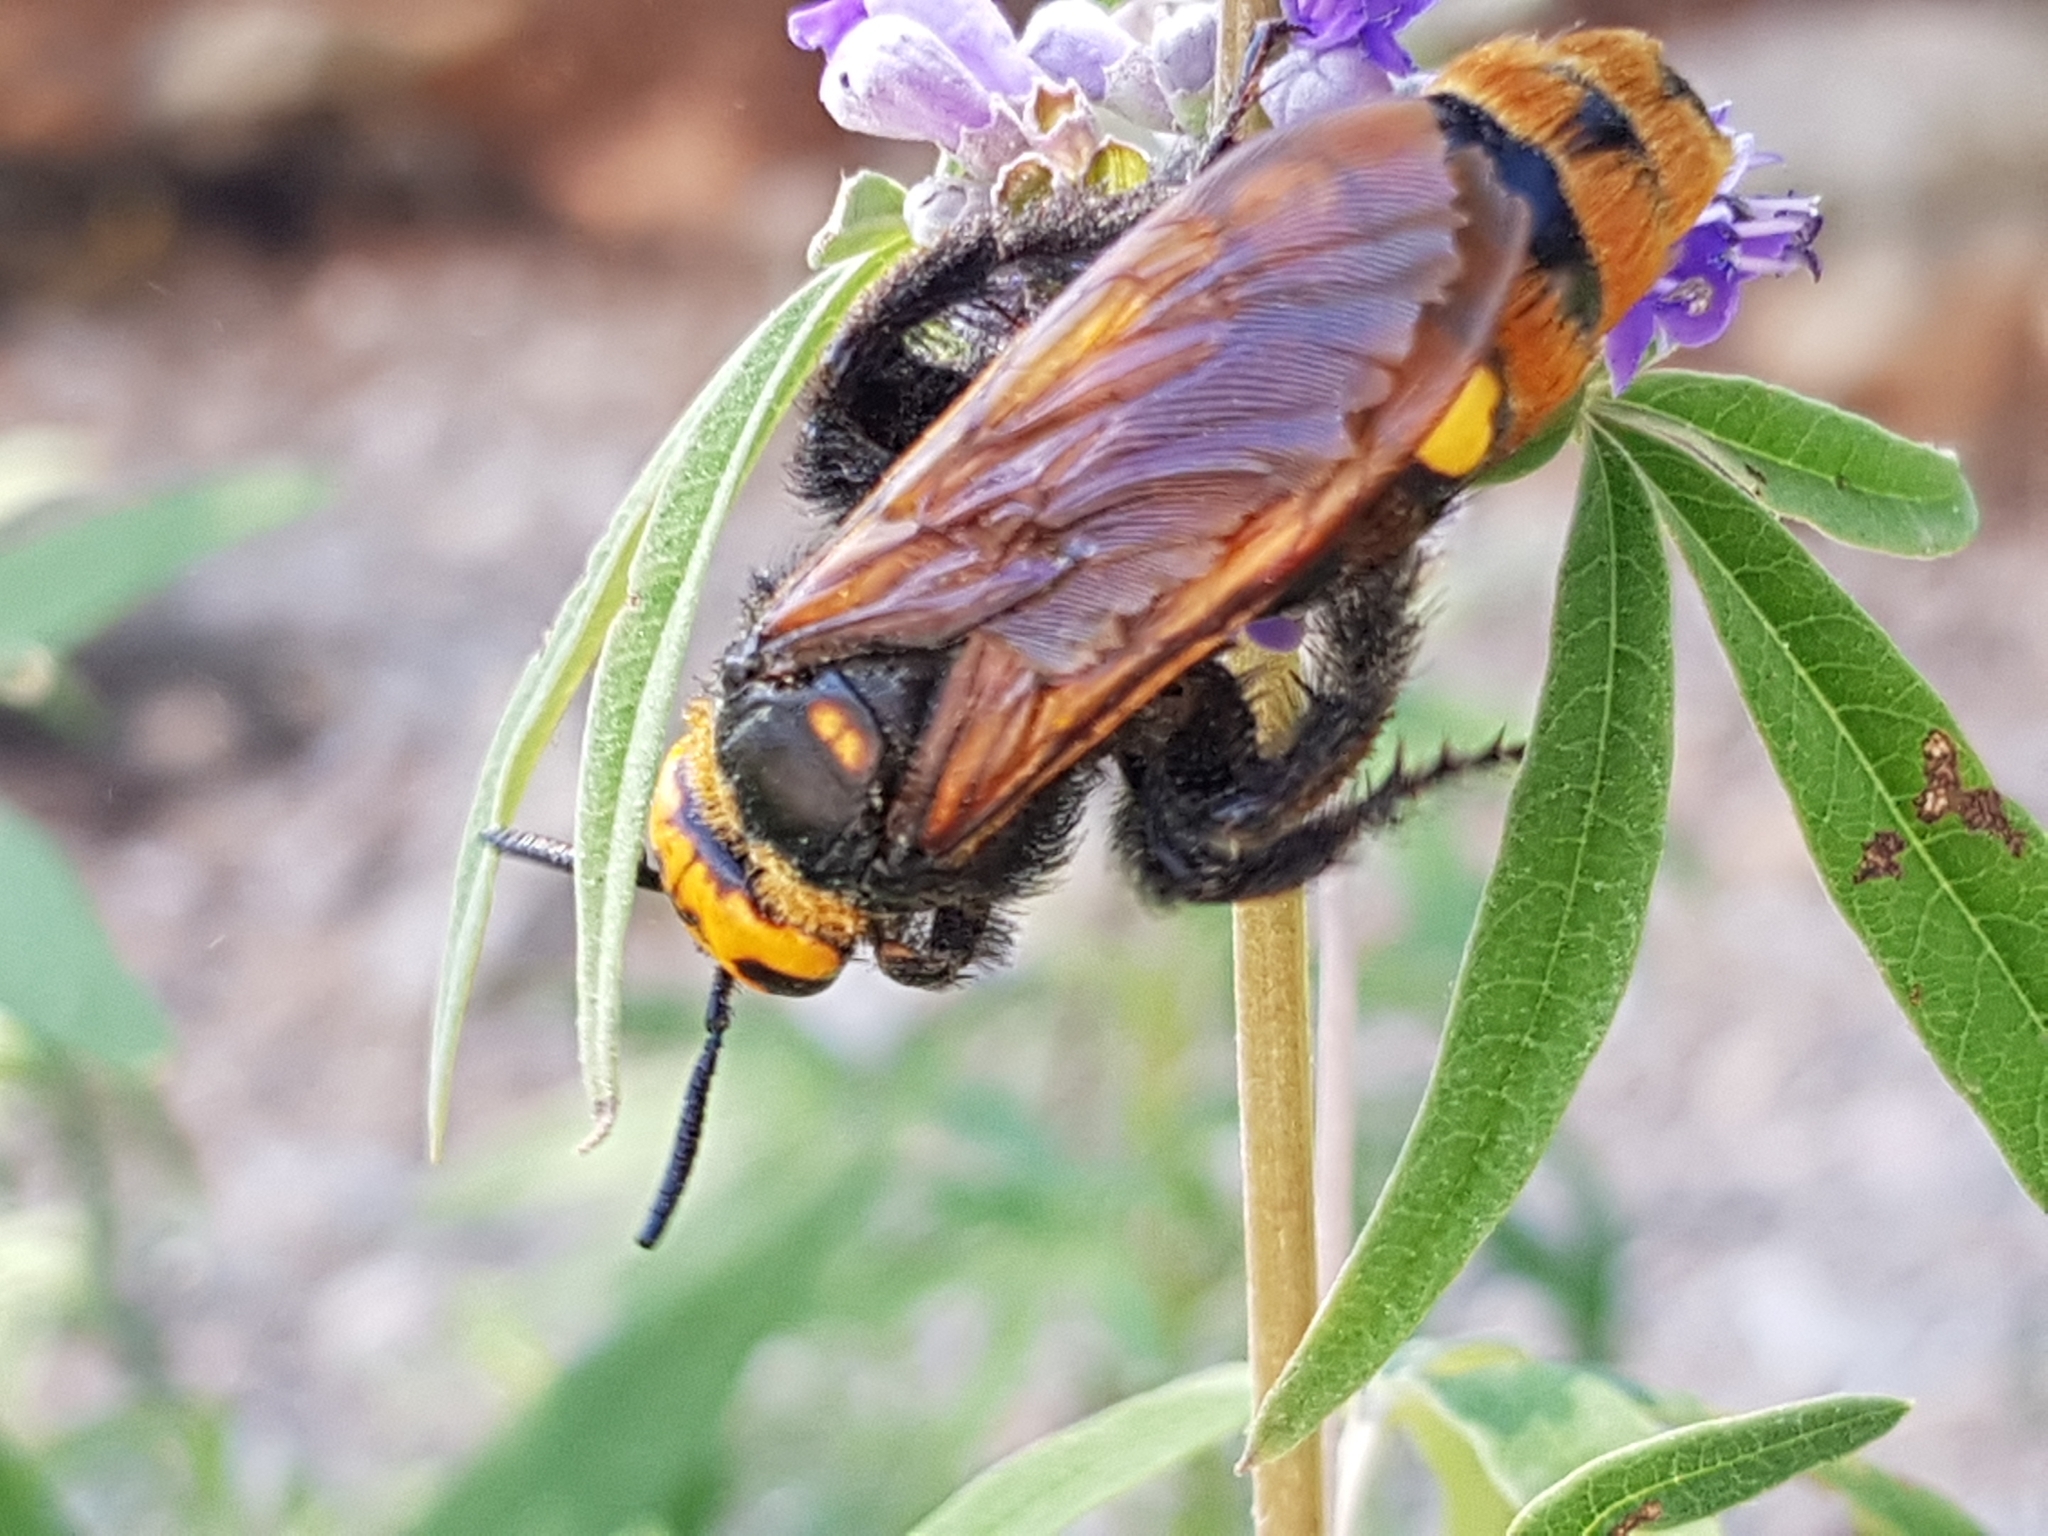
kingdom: Animalia
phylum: Arthropoda
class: Insecta
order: Hymenoptera
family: Scoliidae
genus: Megascolia
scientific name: Megascolia maculata
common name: Mammoth wasp
